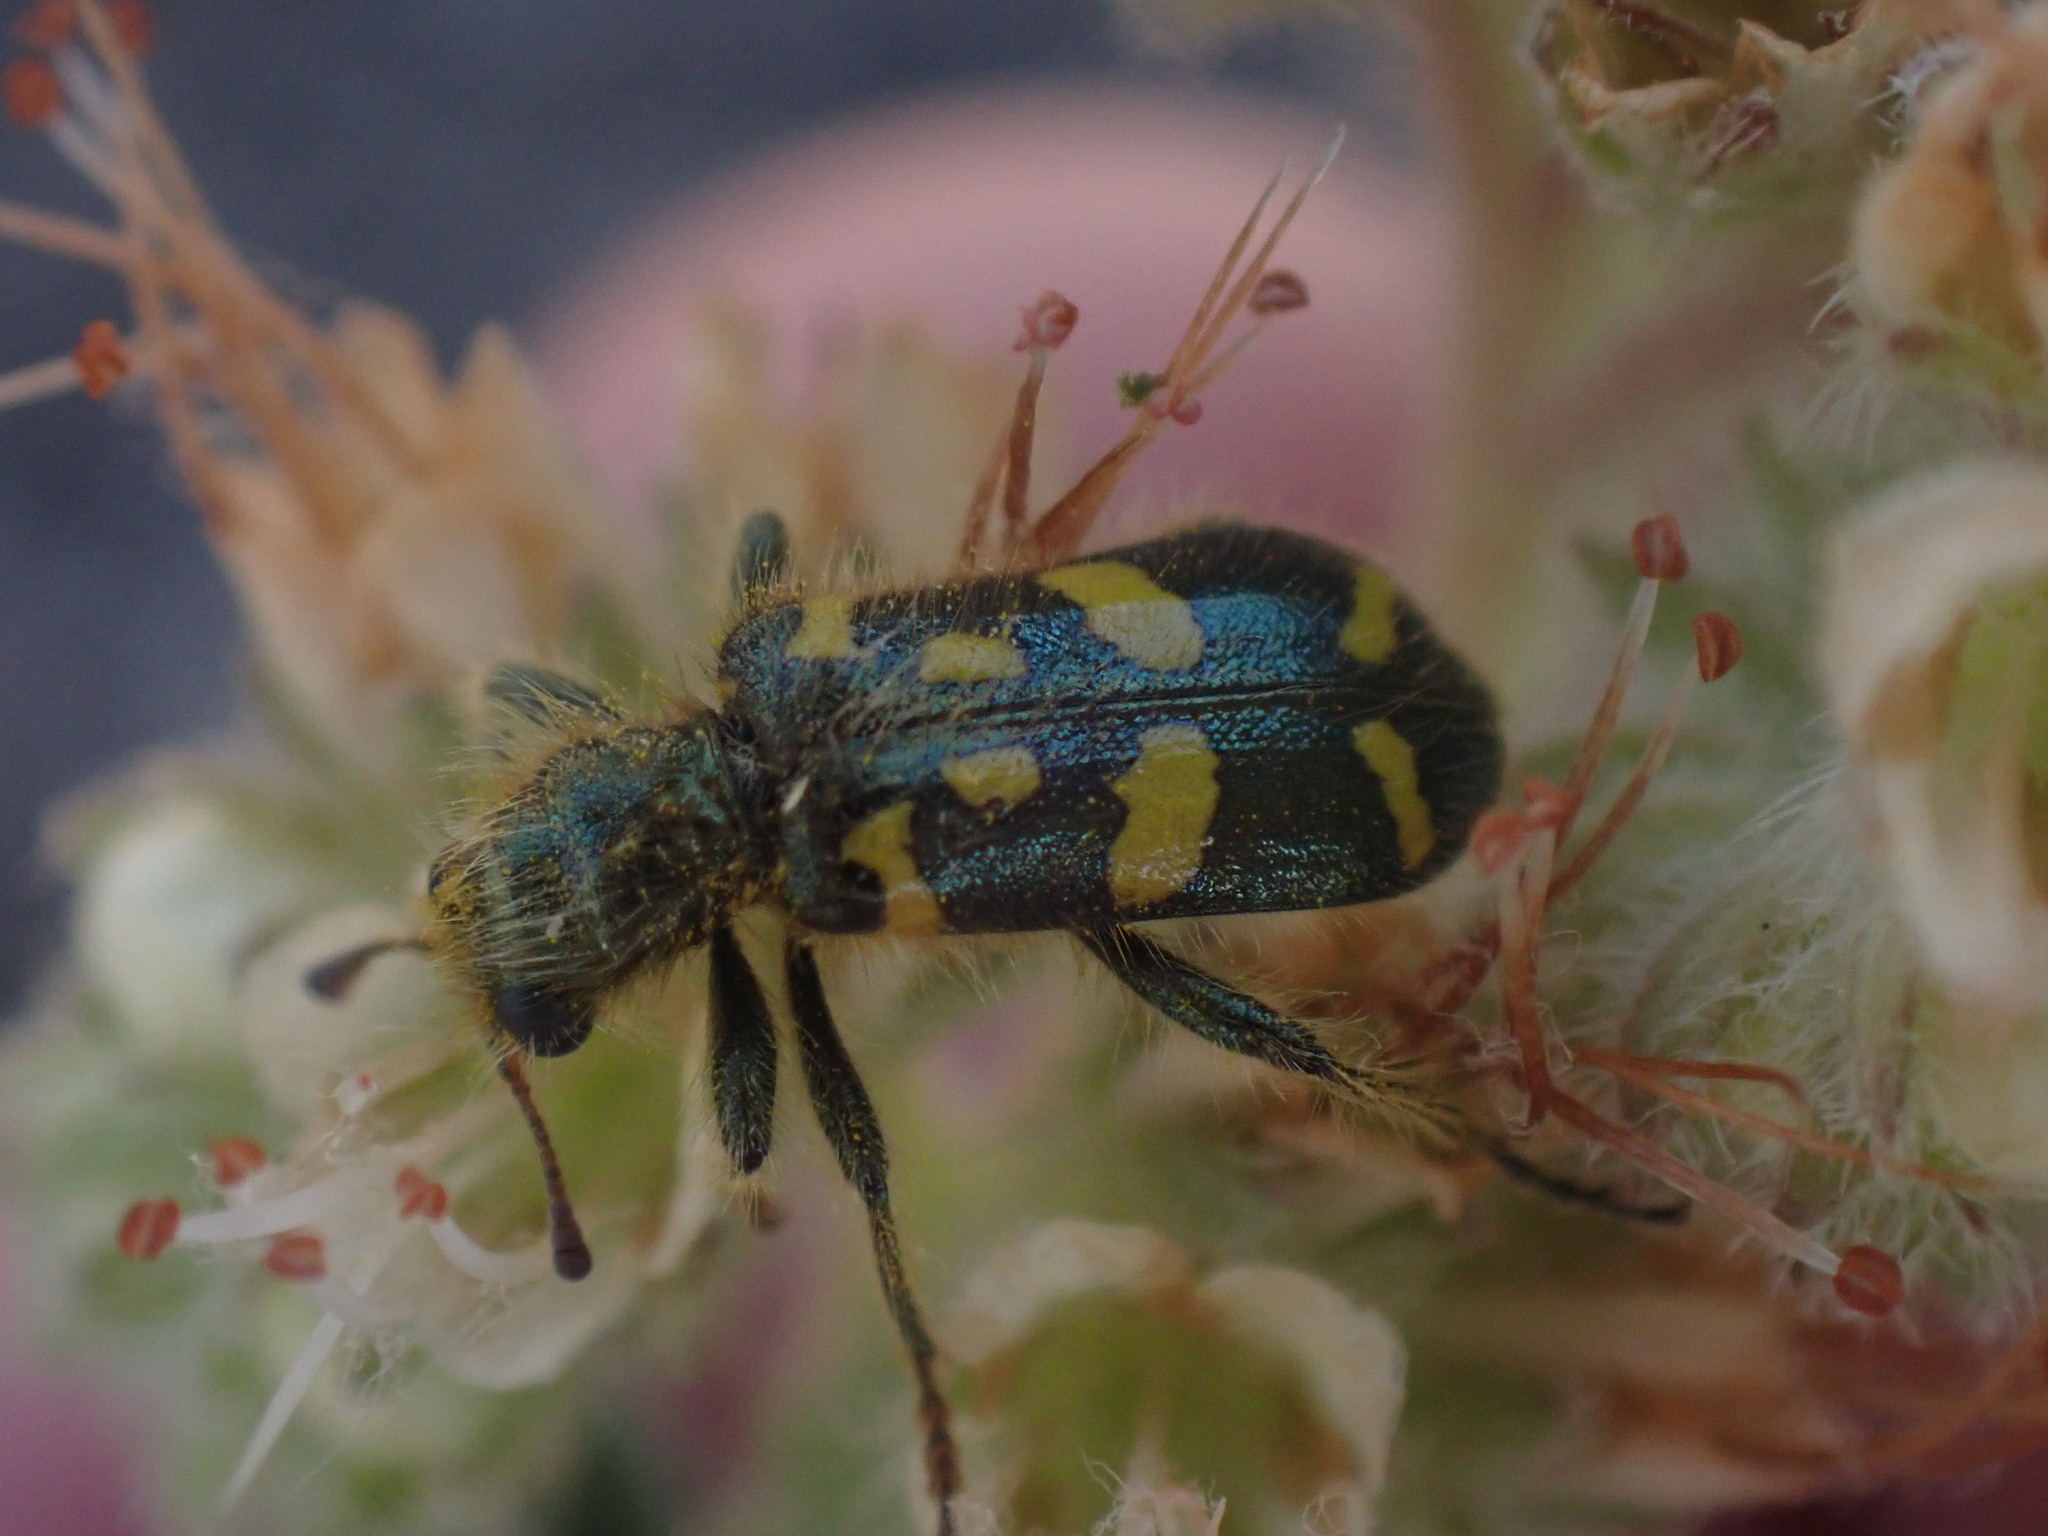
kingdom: Animalia
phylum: Arthropoda
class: Insecta
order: Coleoptera
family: Cleridae
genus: Trichodes
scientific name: Trichodes ornatus
